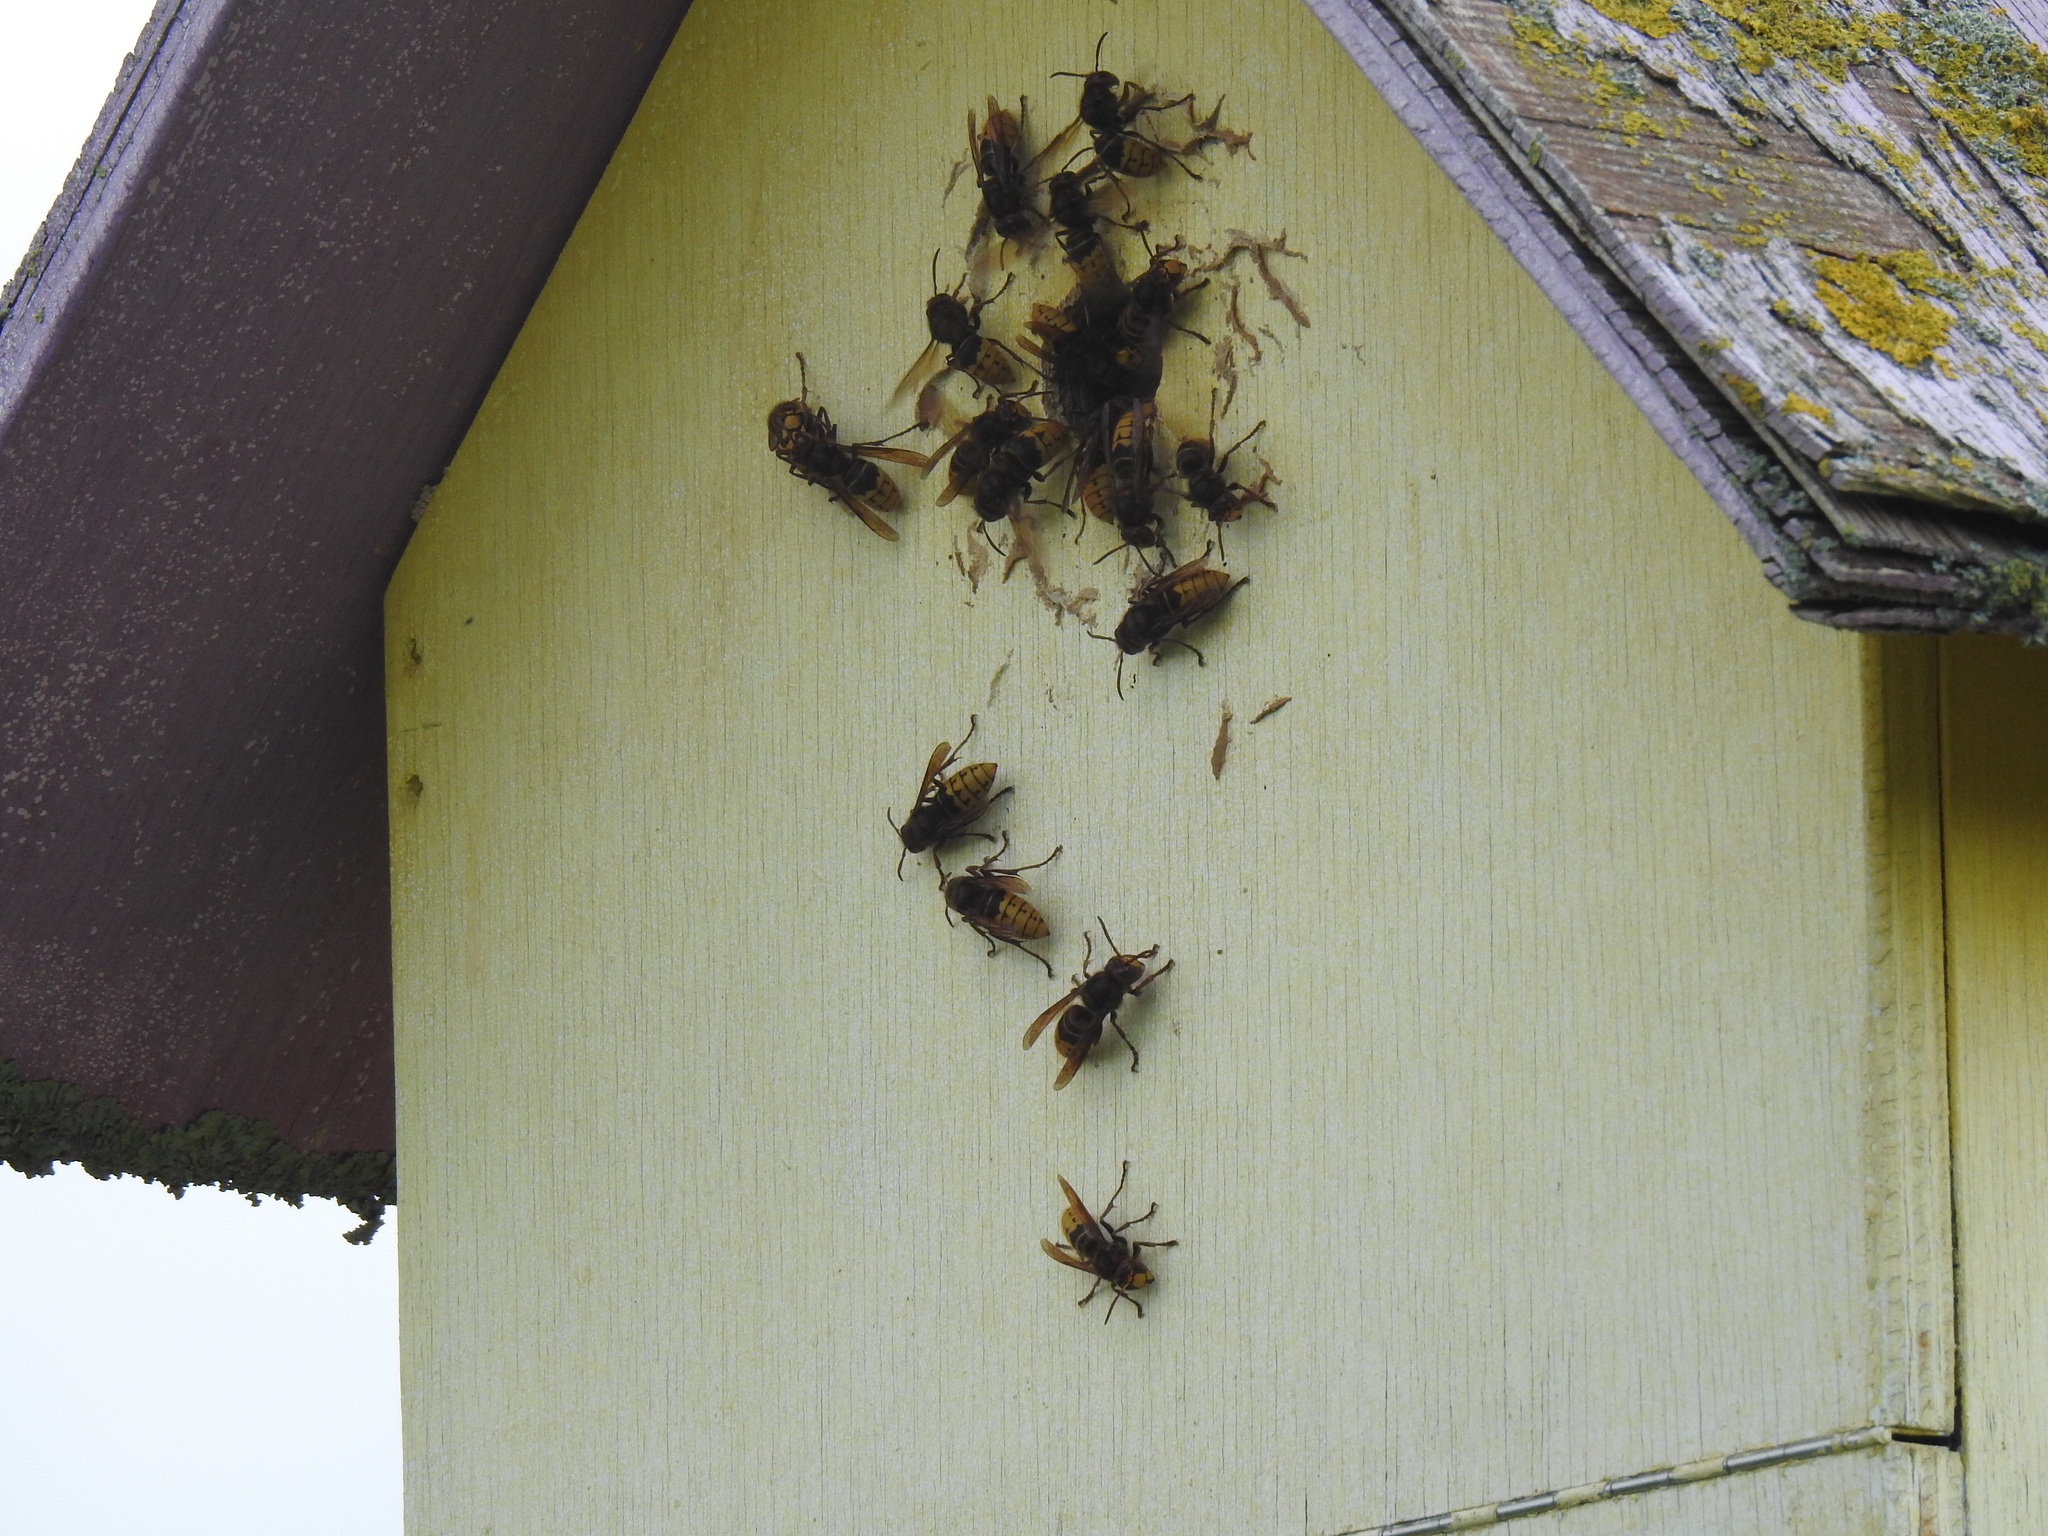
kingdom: Animalia
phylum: Arthropoda
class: Insecta
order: Hymenoptera
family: Vespidae
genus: Vespa
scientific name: Vespa crabro
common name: Hornet
